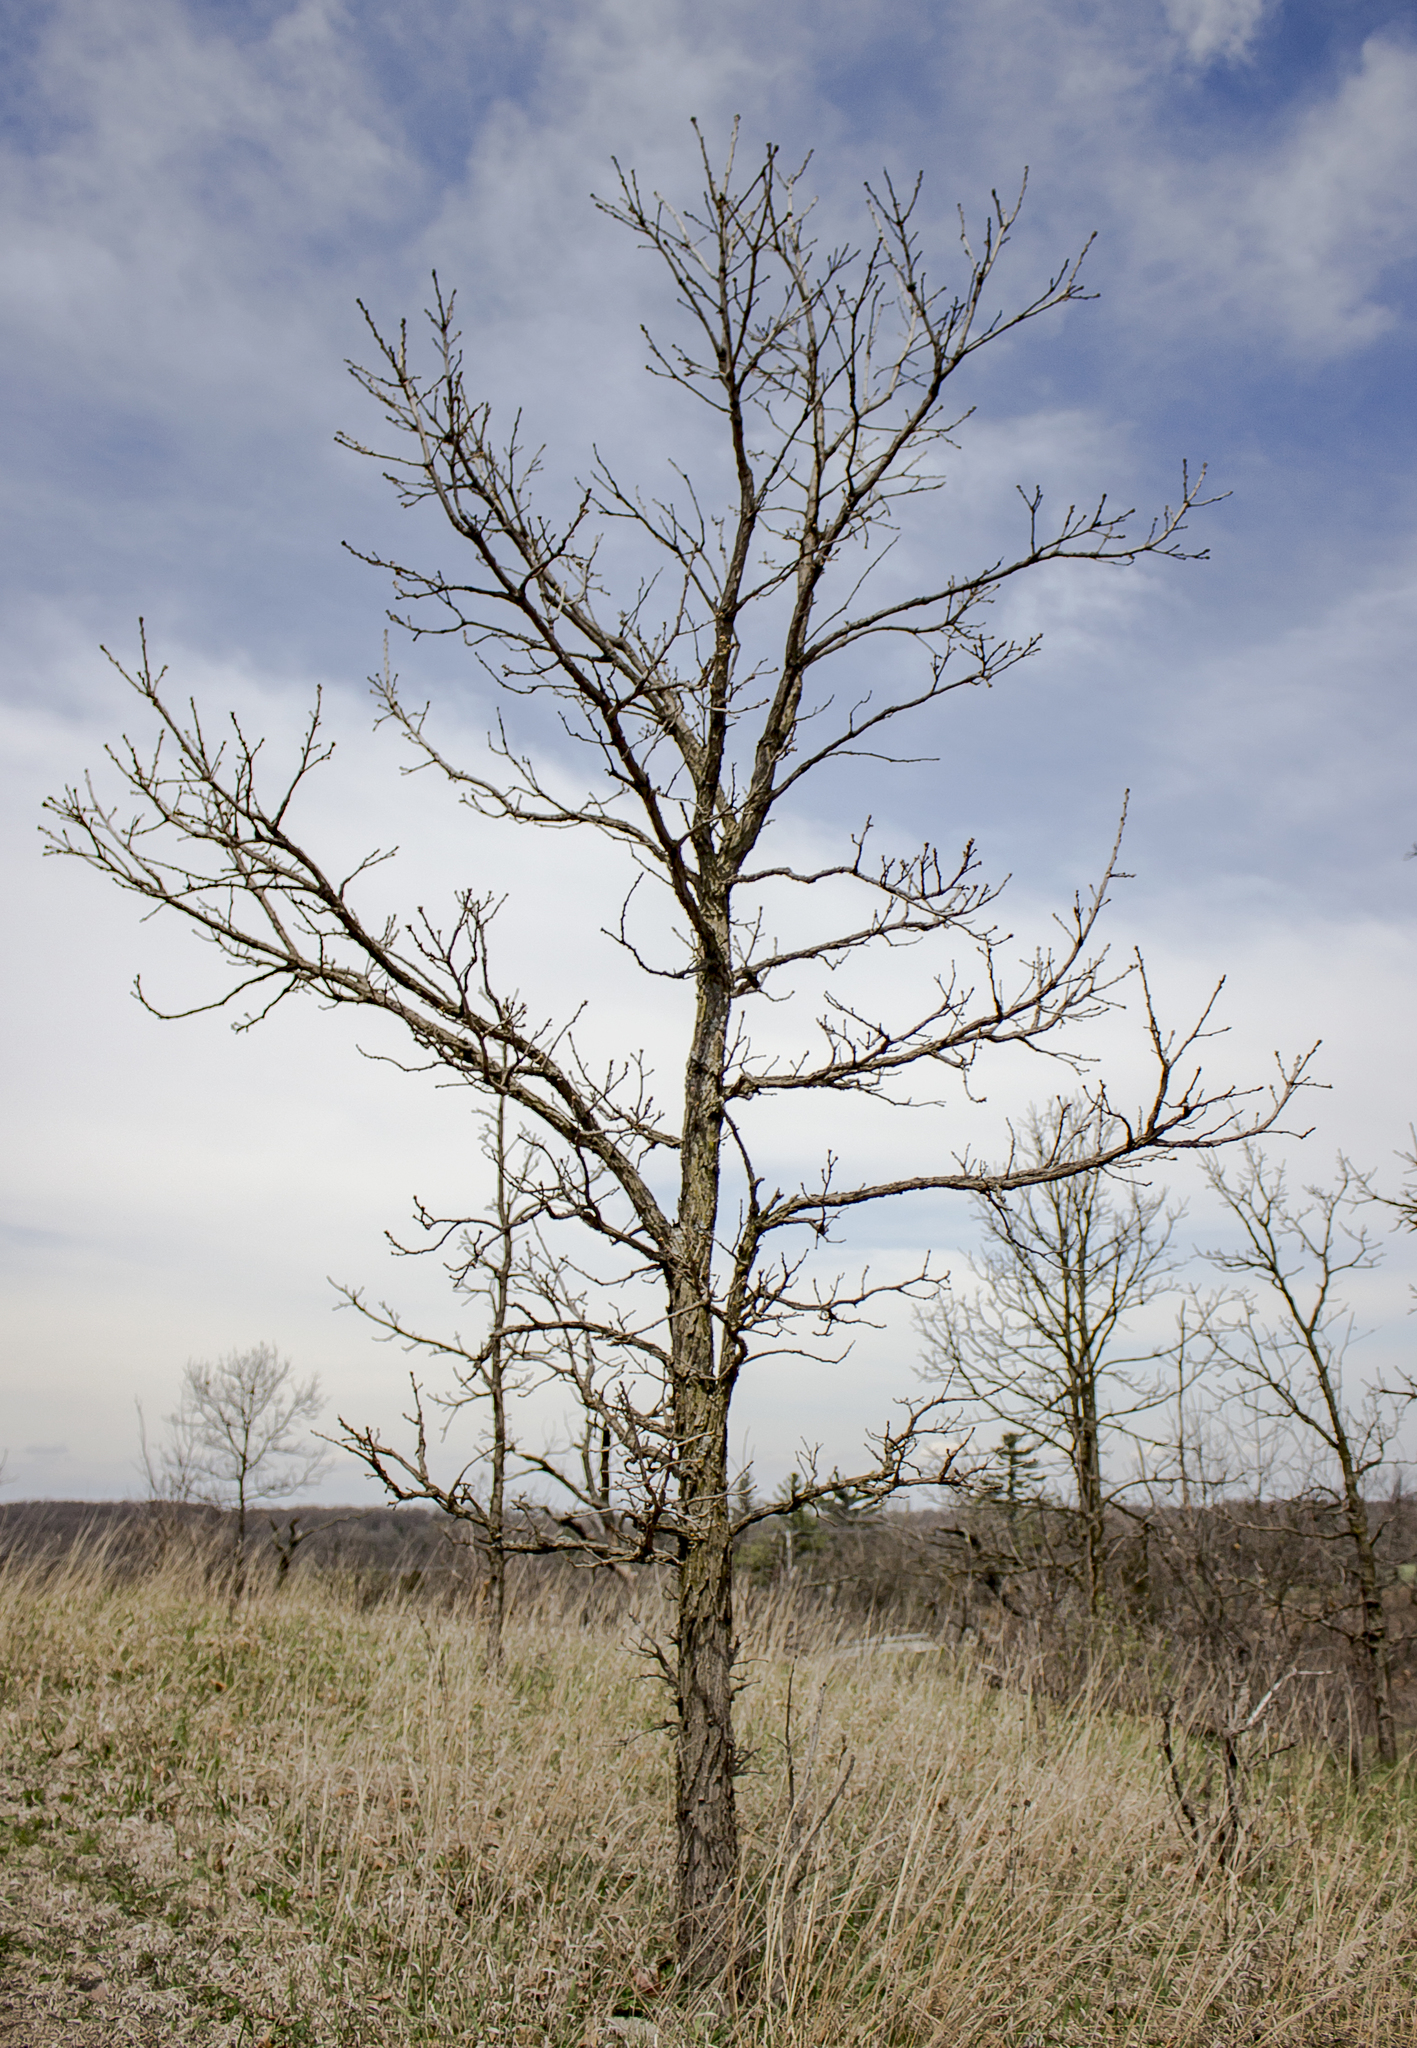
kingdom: Plantae
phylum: Tracheophyta
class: Magnoliopsida
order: Fagales
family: Fagaceae
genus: Quercus
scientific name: Quercus macrocarpa
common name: Bur oak
